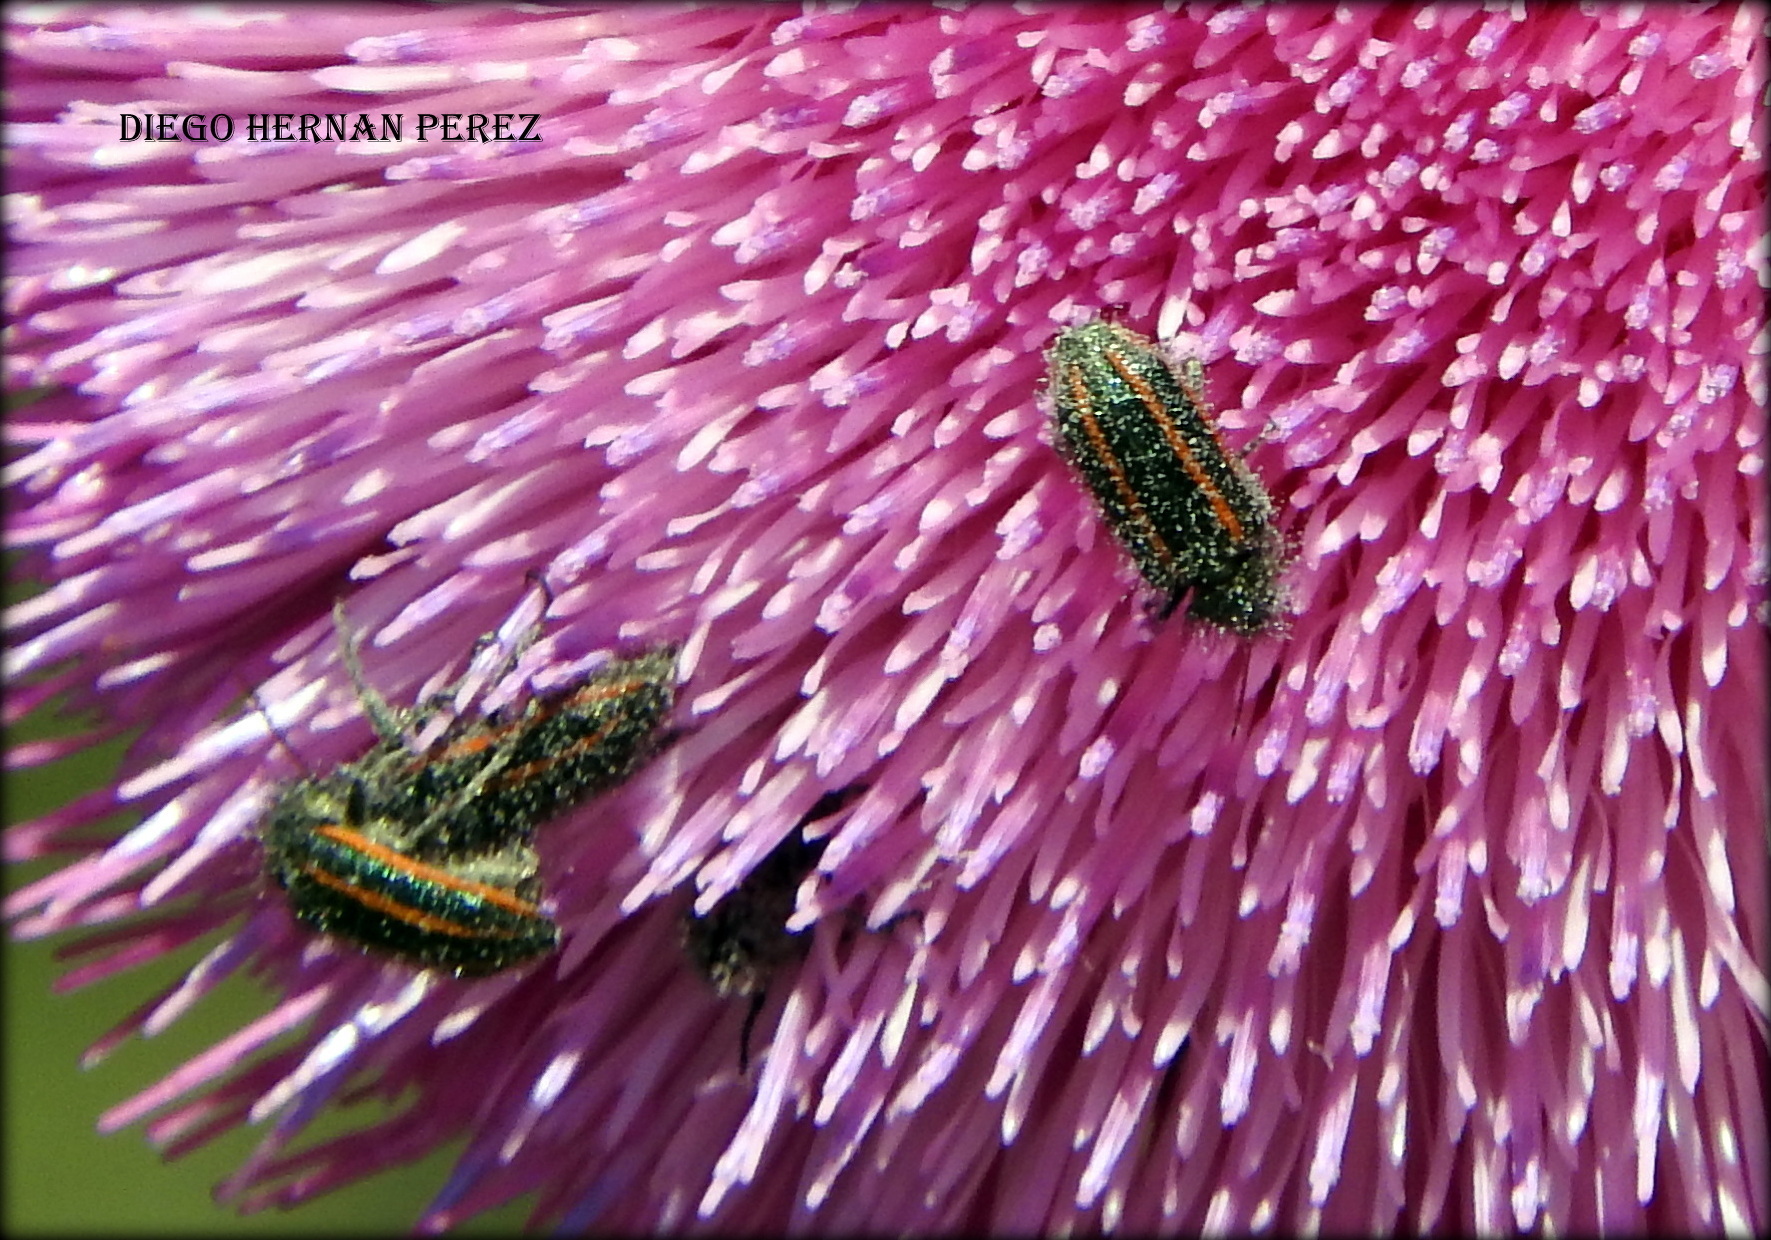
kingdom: Animalia
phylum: Arthropoda
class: Insecta
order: Coleoptera
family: Melyridae
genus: Astylus
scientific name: Astylus
